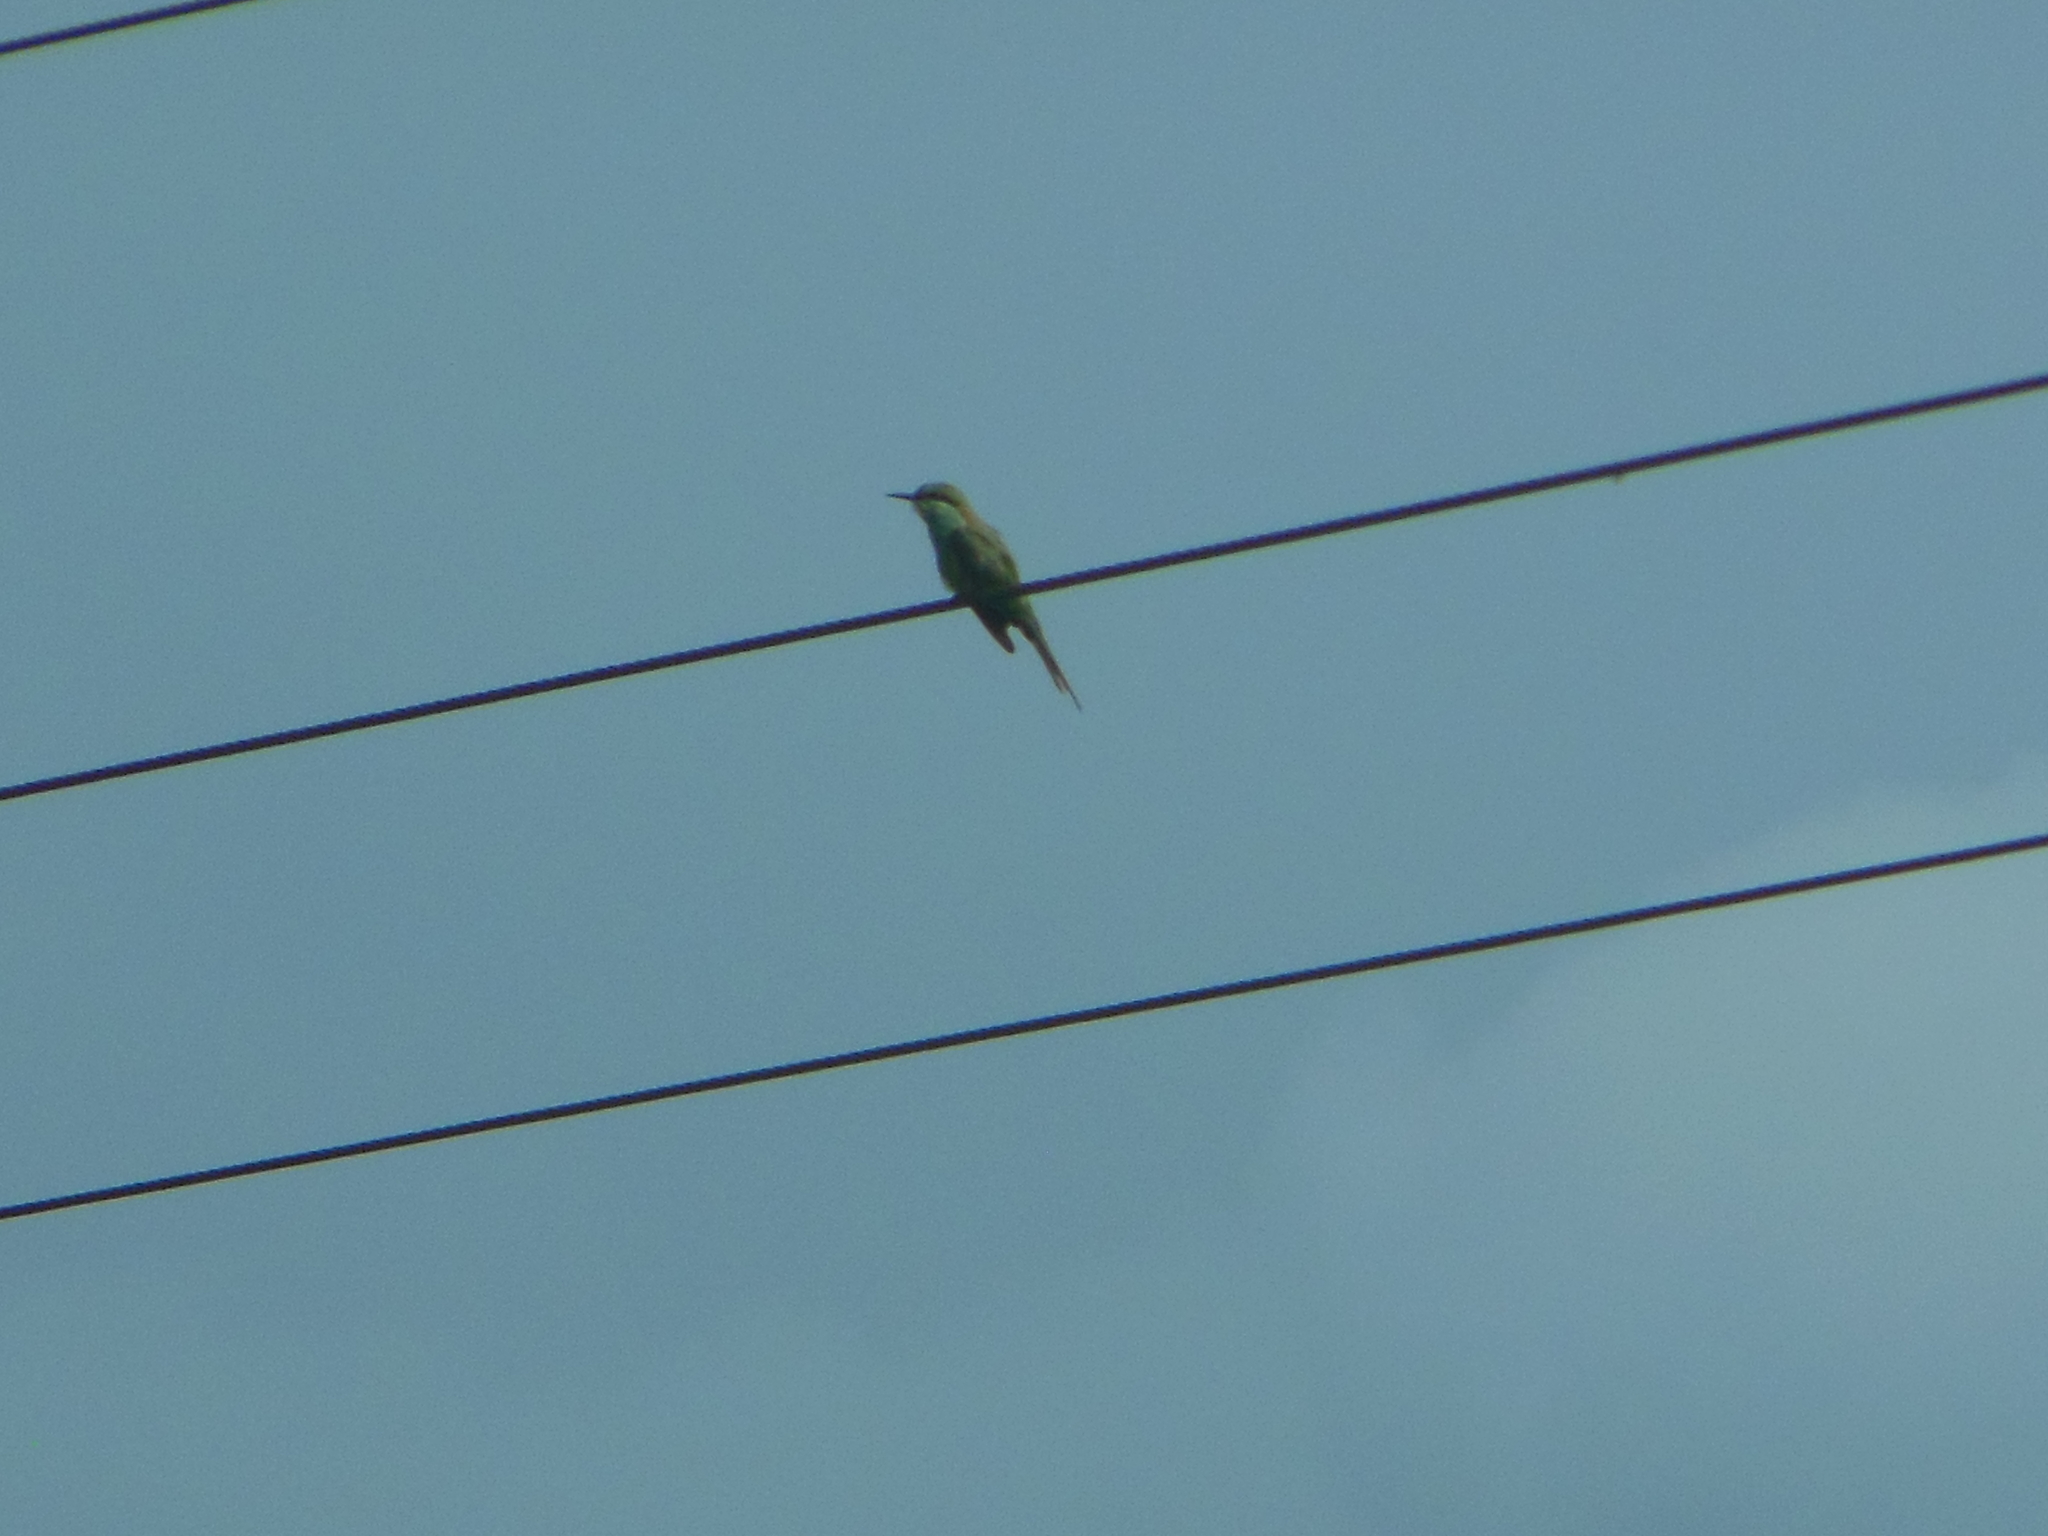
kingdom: Animalia
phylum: Chordata
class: Aves
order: Coraciiformes
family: Meropidae
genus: Merops
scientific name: Merops orientalis
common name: Green bee-eater
